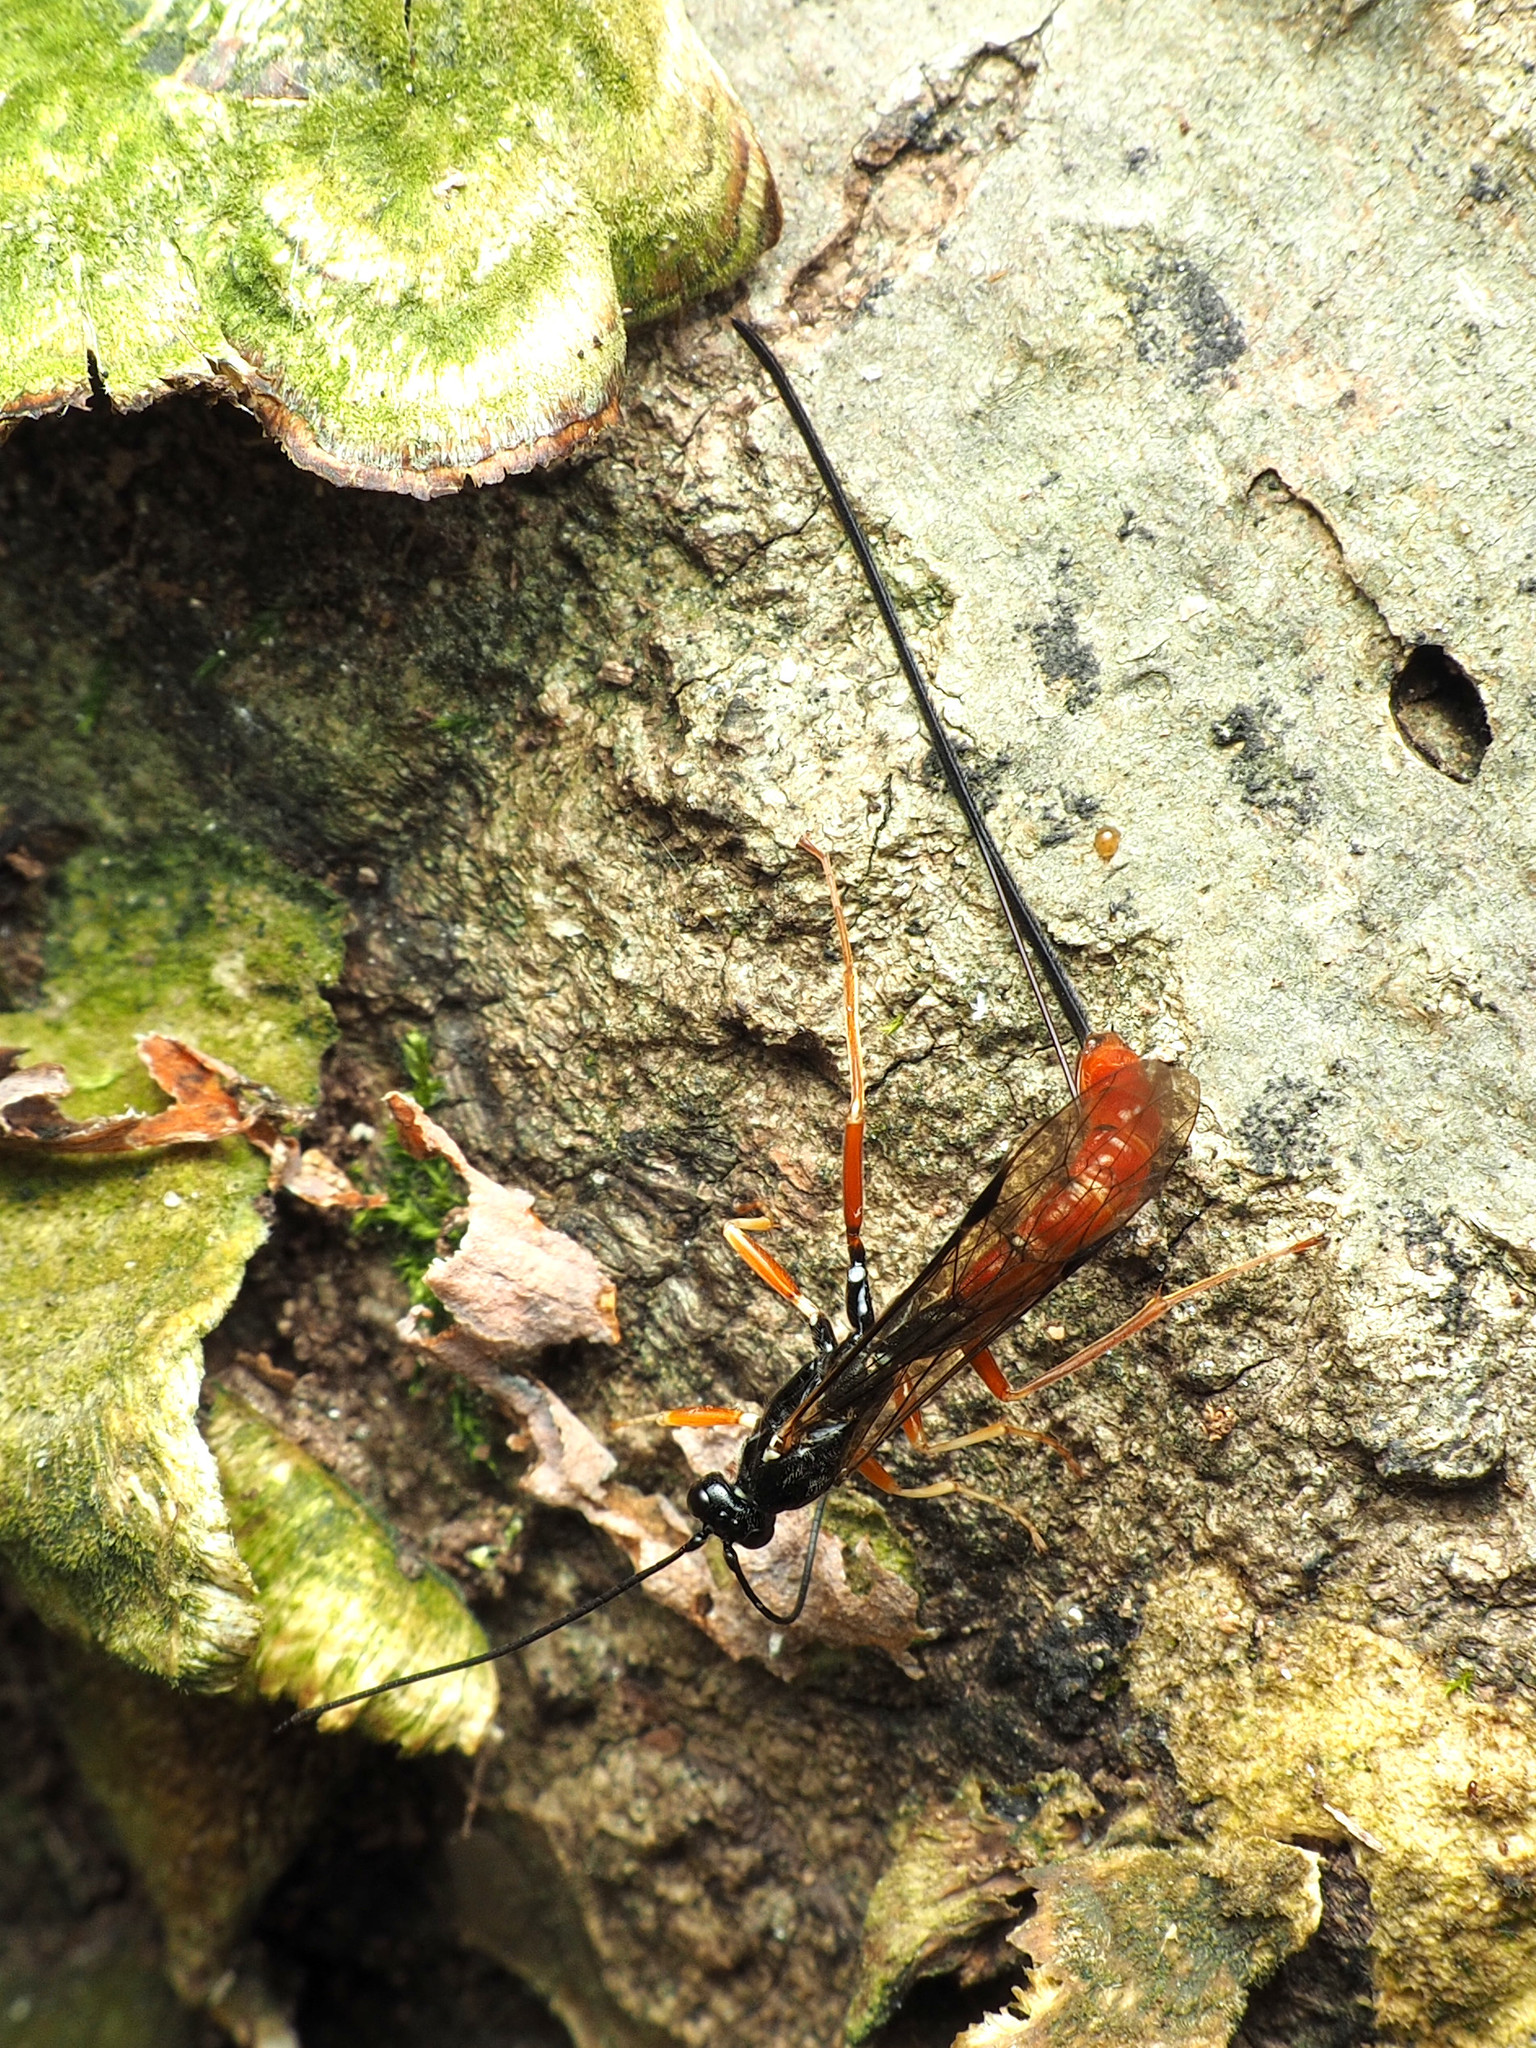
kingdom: Animalia
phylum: Arthropoda
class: Insecta
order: Hymenoptera
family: Ichneumonidae
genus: Dolichomitus
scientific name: Dolichomitus irritator
